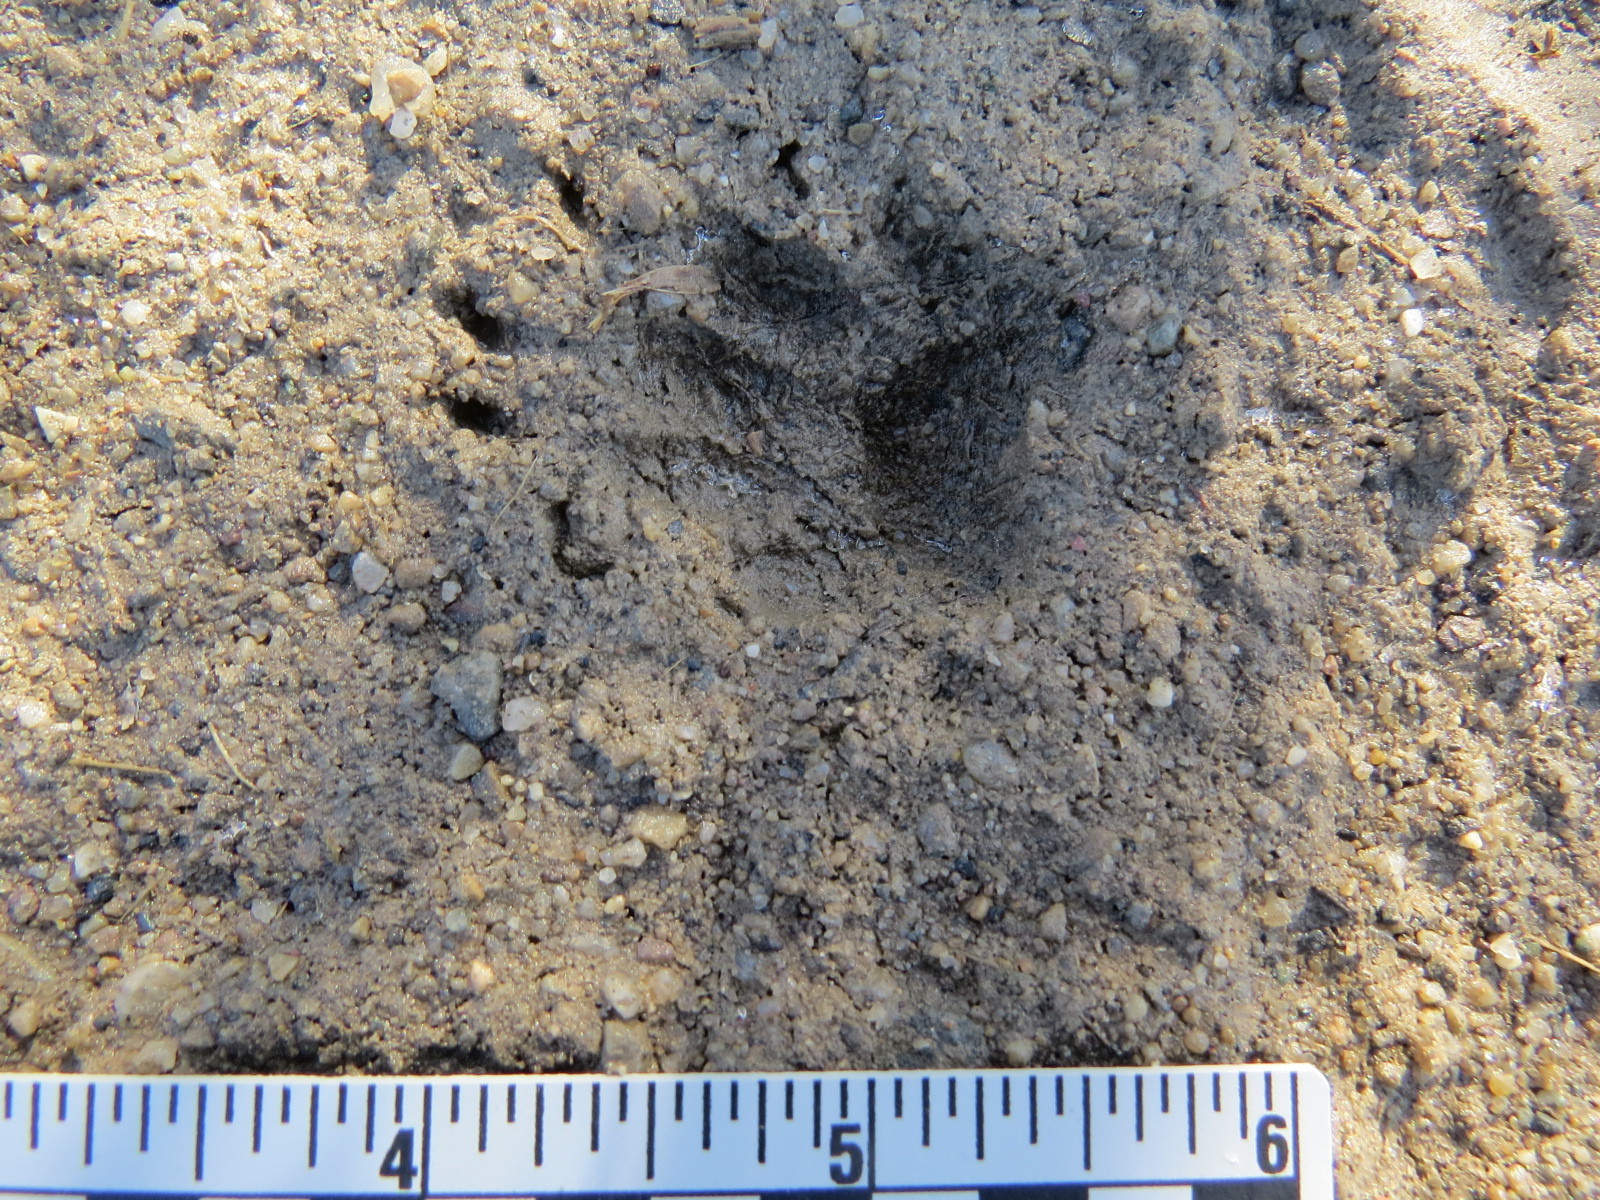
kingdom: Animalia
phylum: Chordata
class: Mammalia
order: Carnivora
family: Mephitidae
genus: Mephitis
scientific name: Mephitis mephitis
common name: Striped skunk
